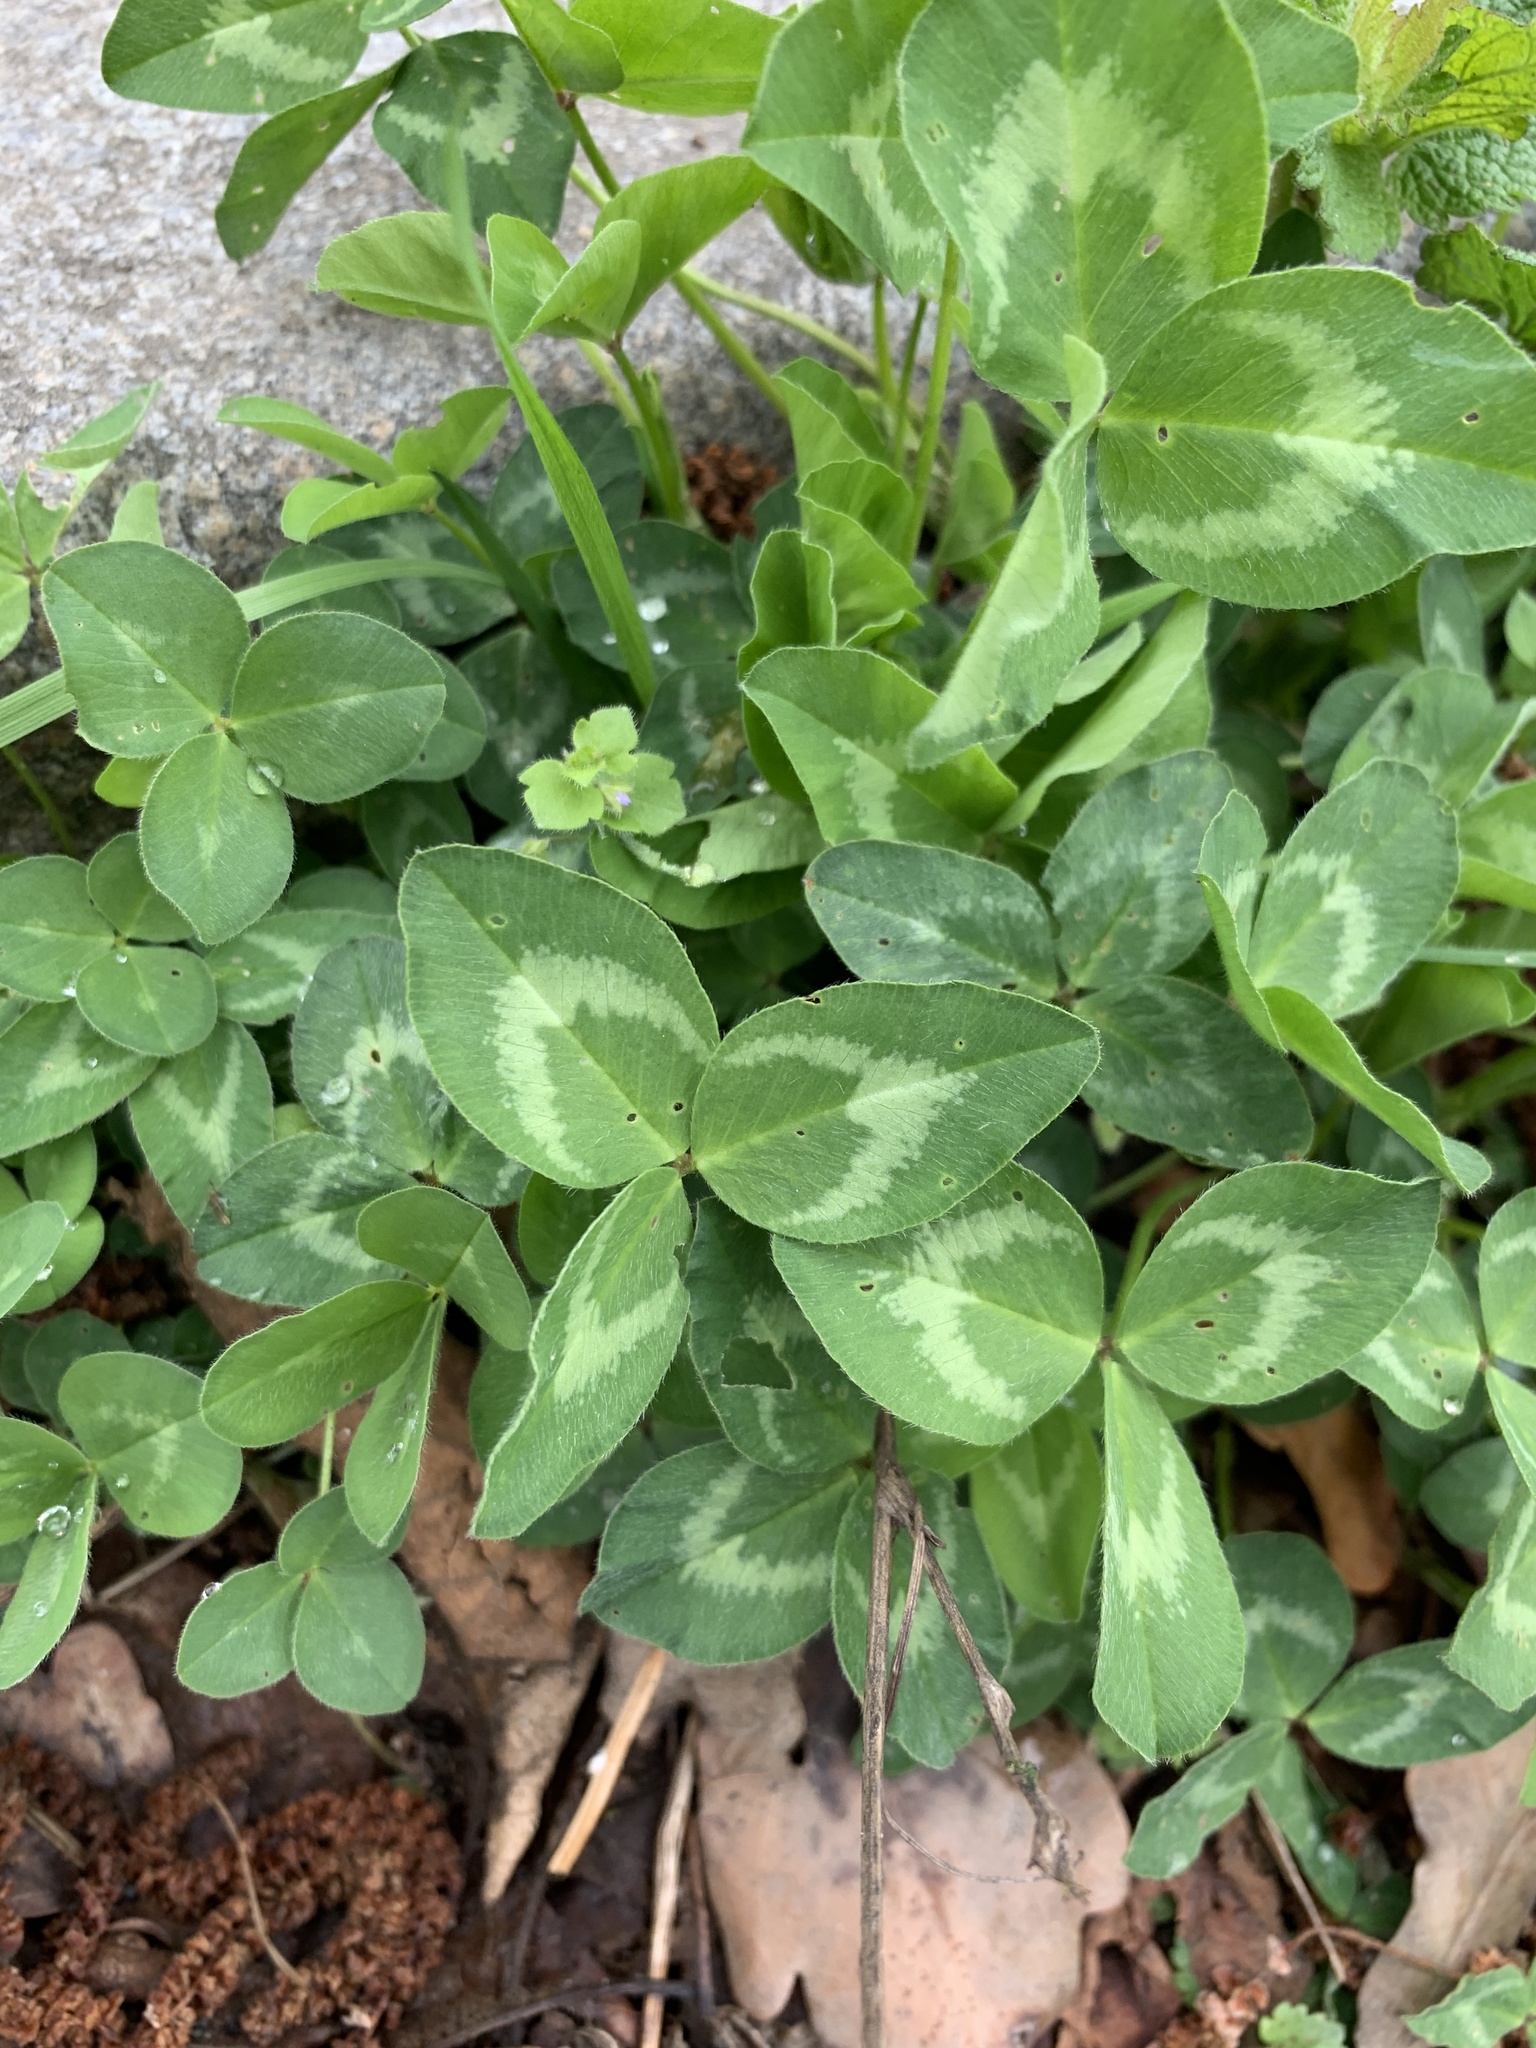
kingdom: Plantae
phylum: Tracheophyta
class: Magnoliopsida
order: Fabales
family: Fabaceae
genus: Trifolium
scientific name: Trifolium pratense
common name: Red clover
